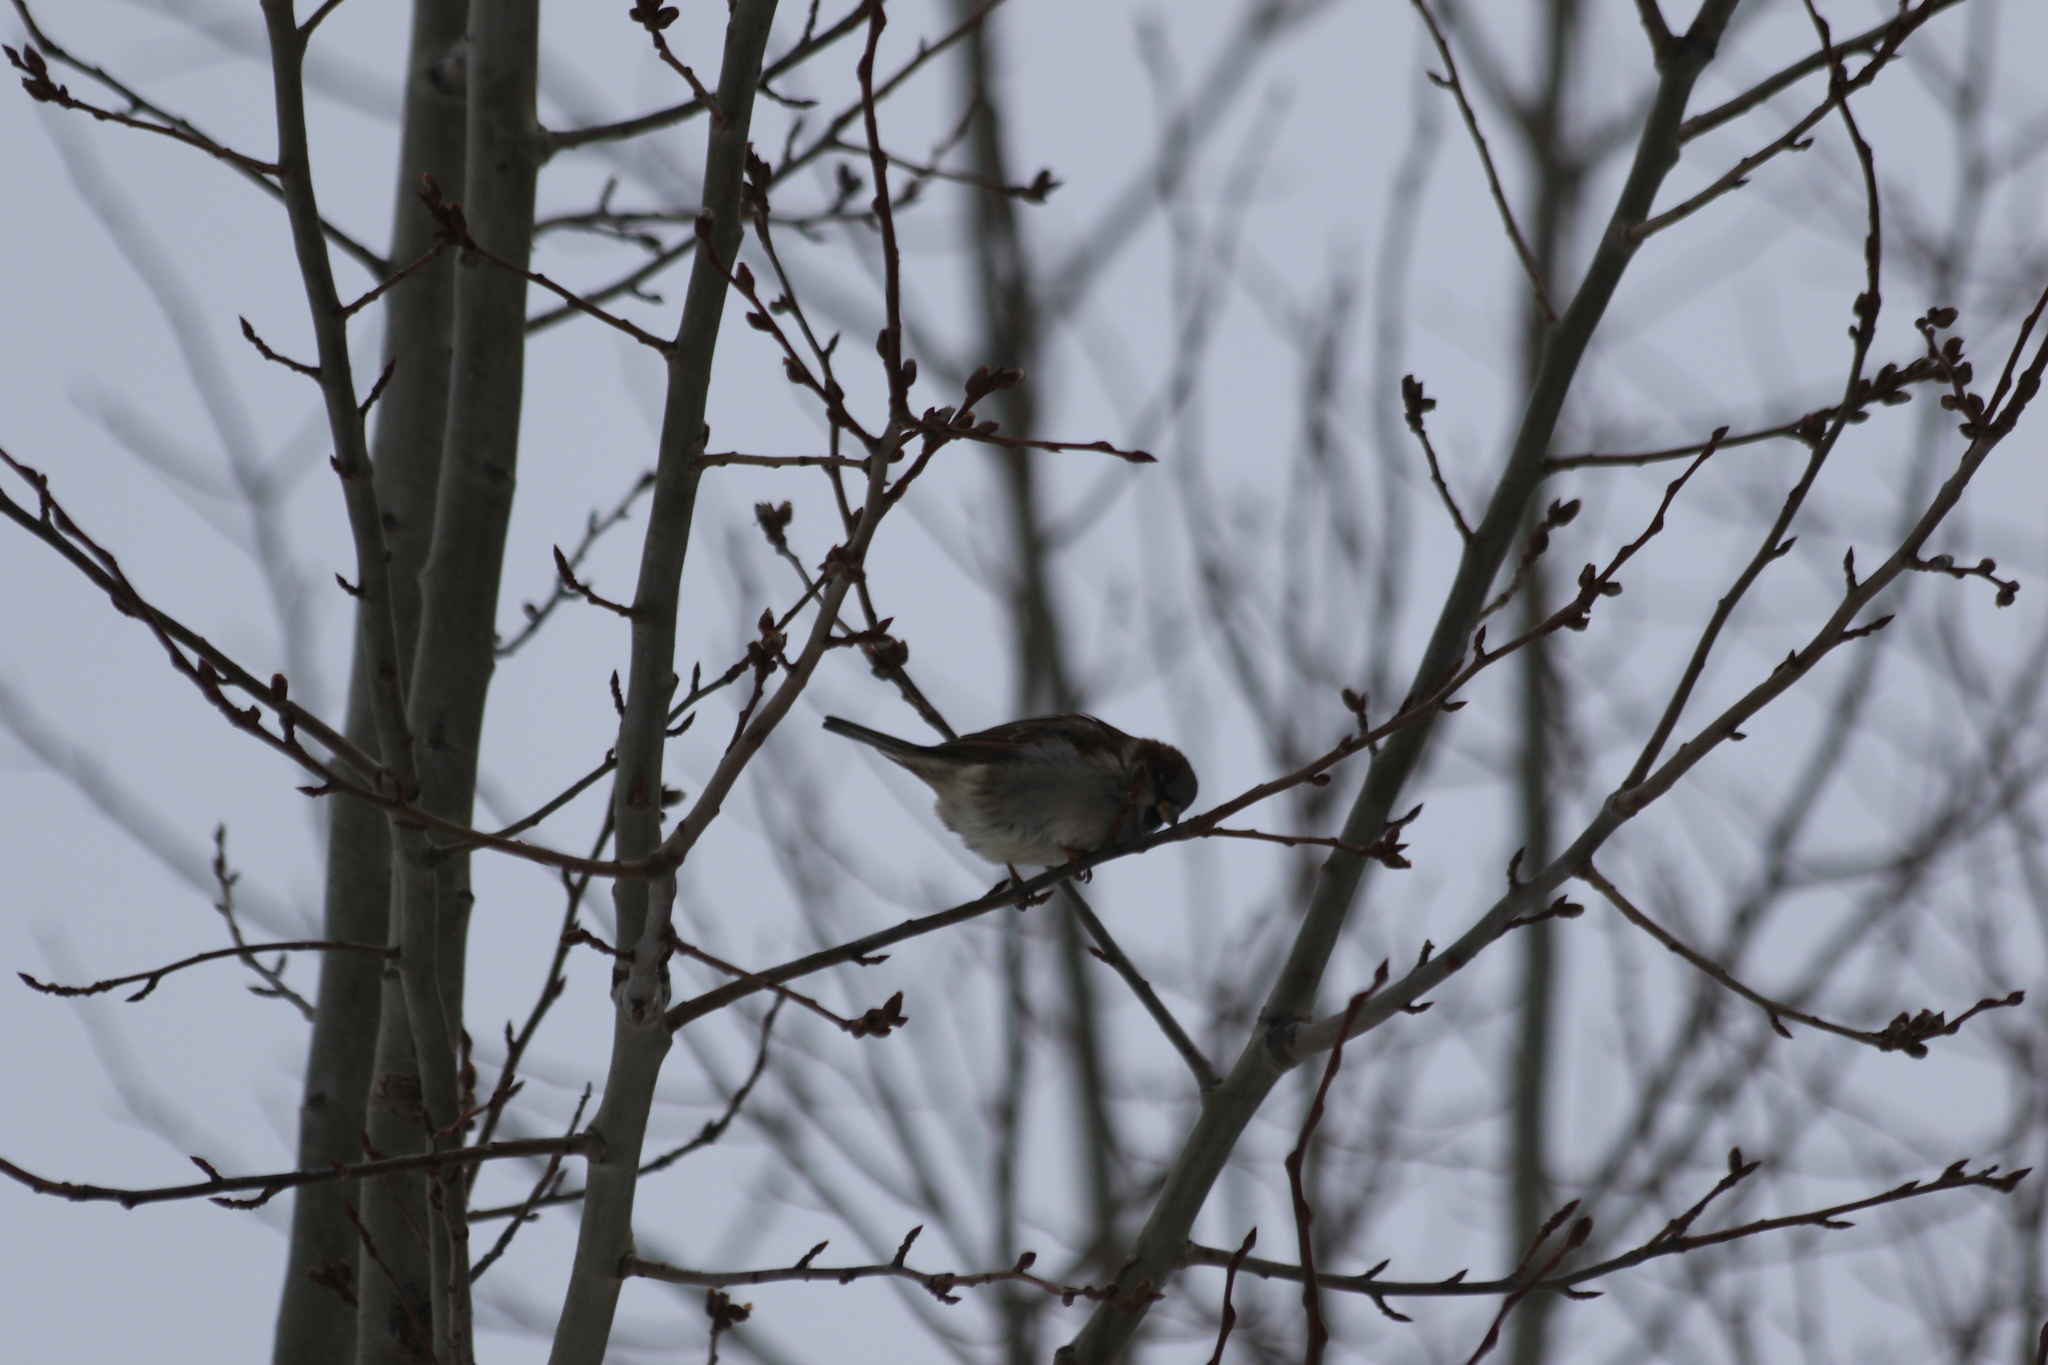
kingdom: Animalia
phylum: Chordata
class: Aves
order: Passeriformes
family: Passeridae
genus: Passer
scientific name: Passer domesticus
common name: House sparrow
